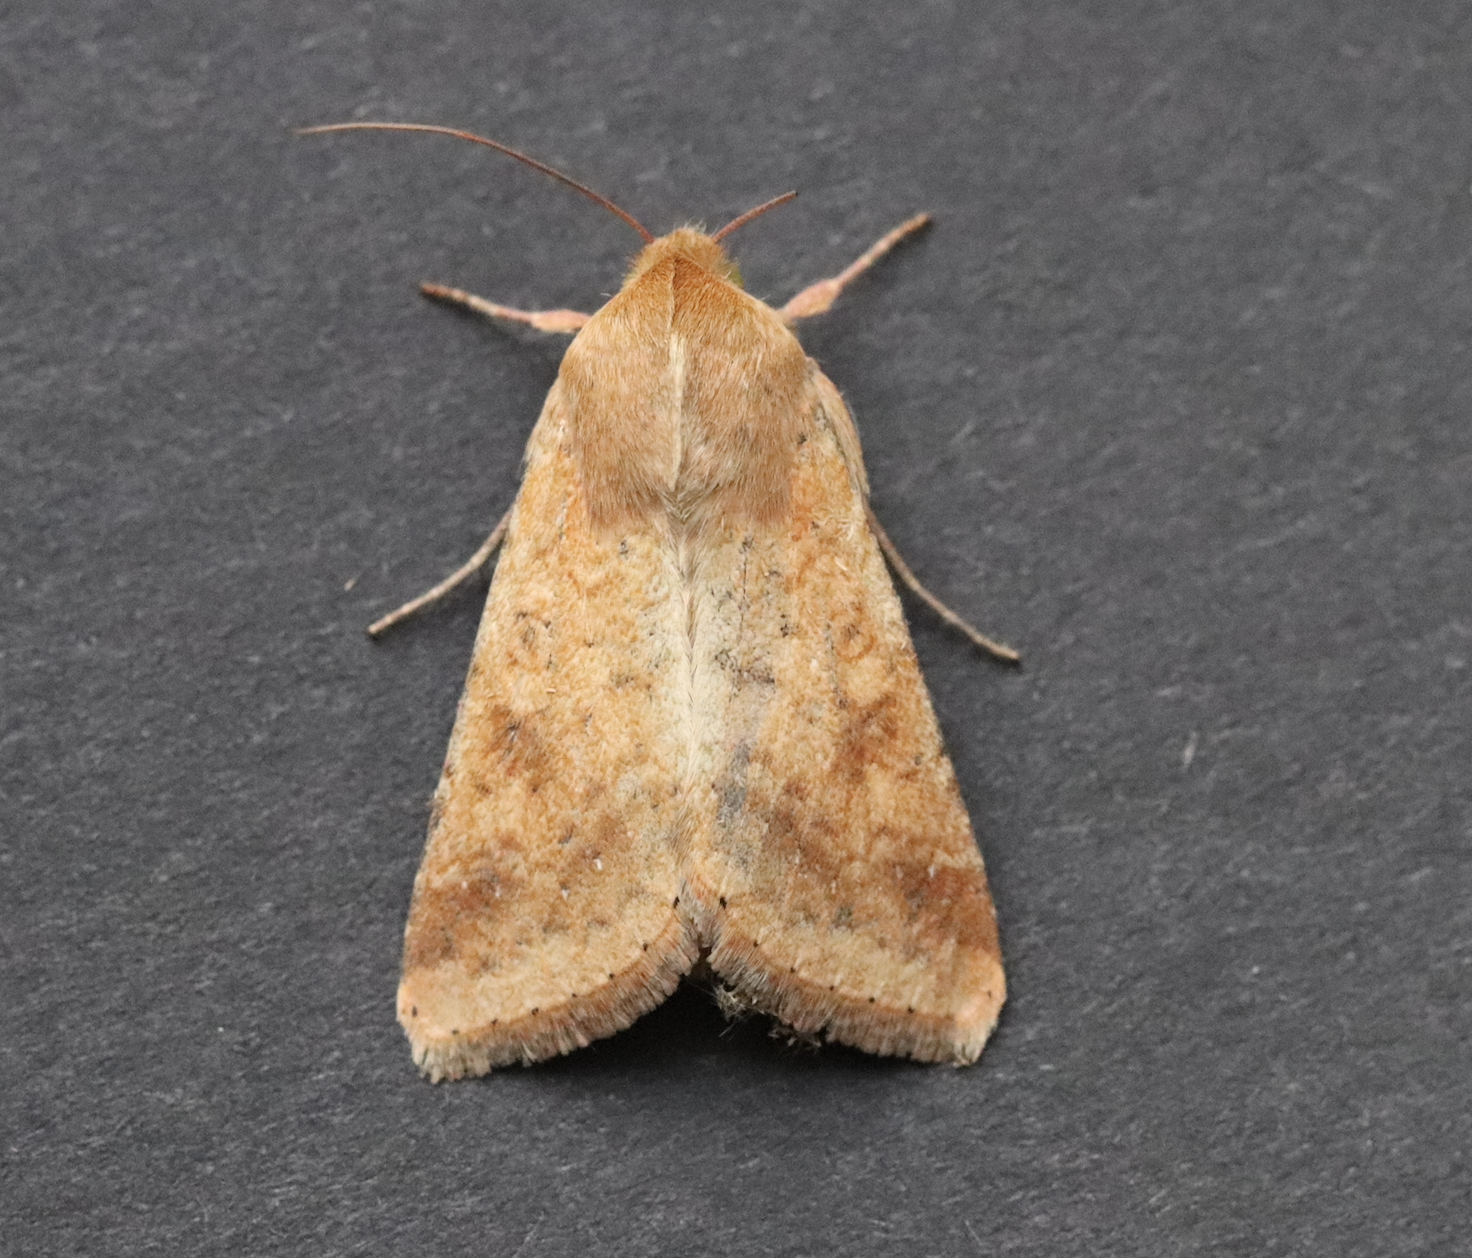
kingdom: Animalia
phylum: Arthropoda
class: Insecta
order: Lepidoptera
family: Noctuidae
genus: Helicoverpa
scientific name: Helicoverpa armigera
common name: Cotton bollworm
